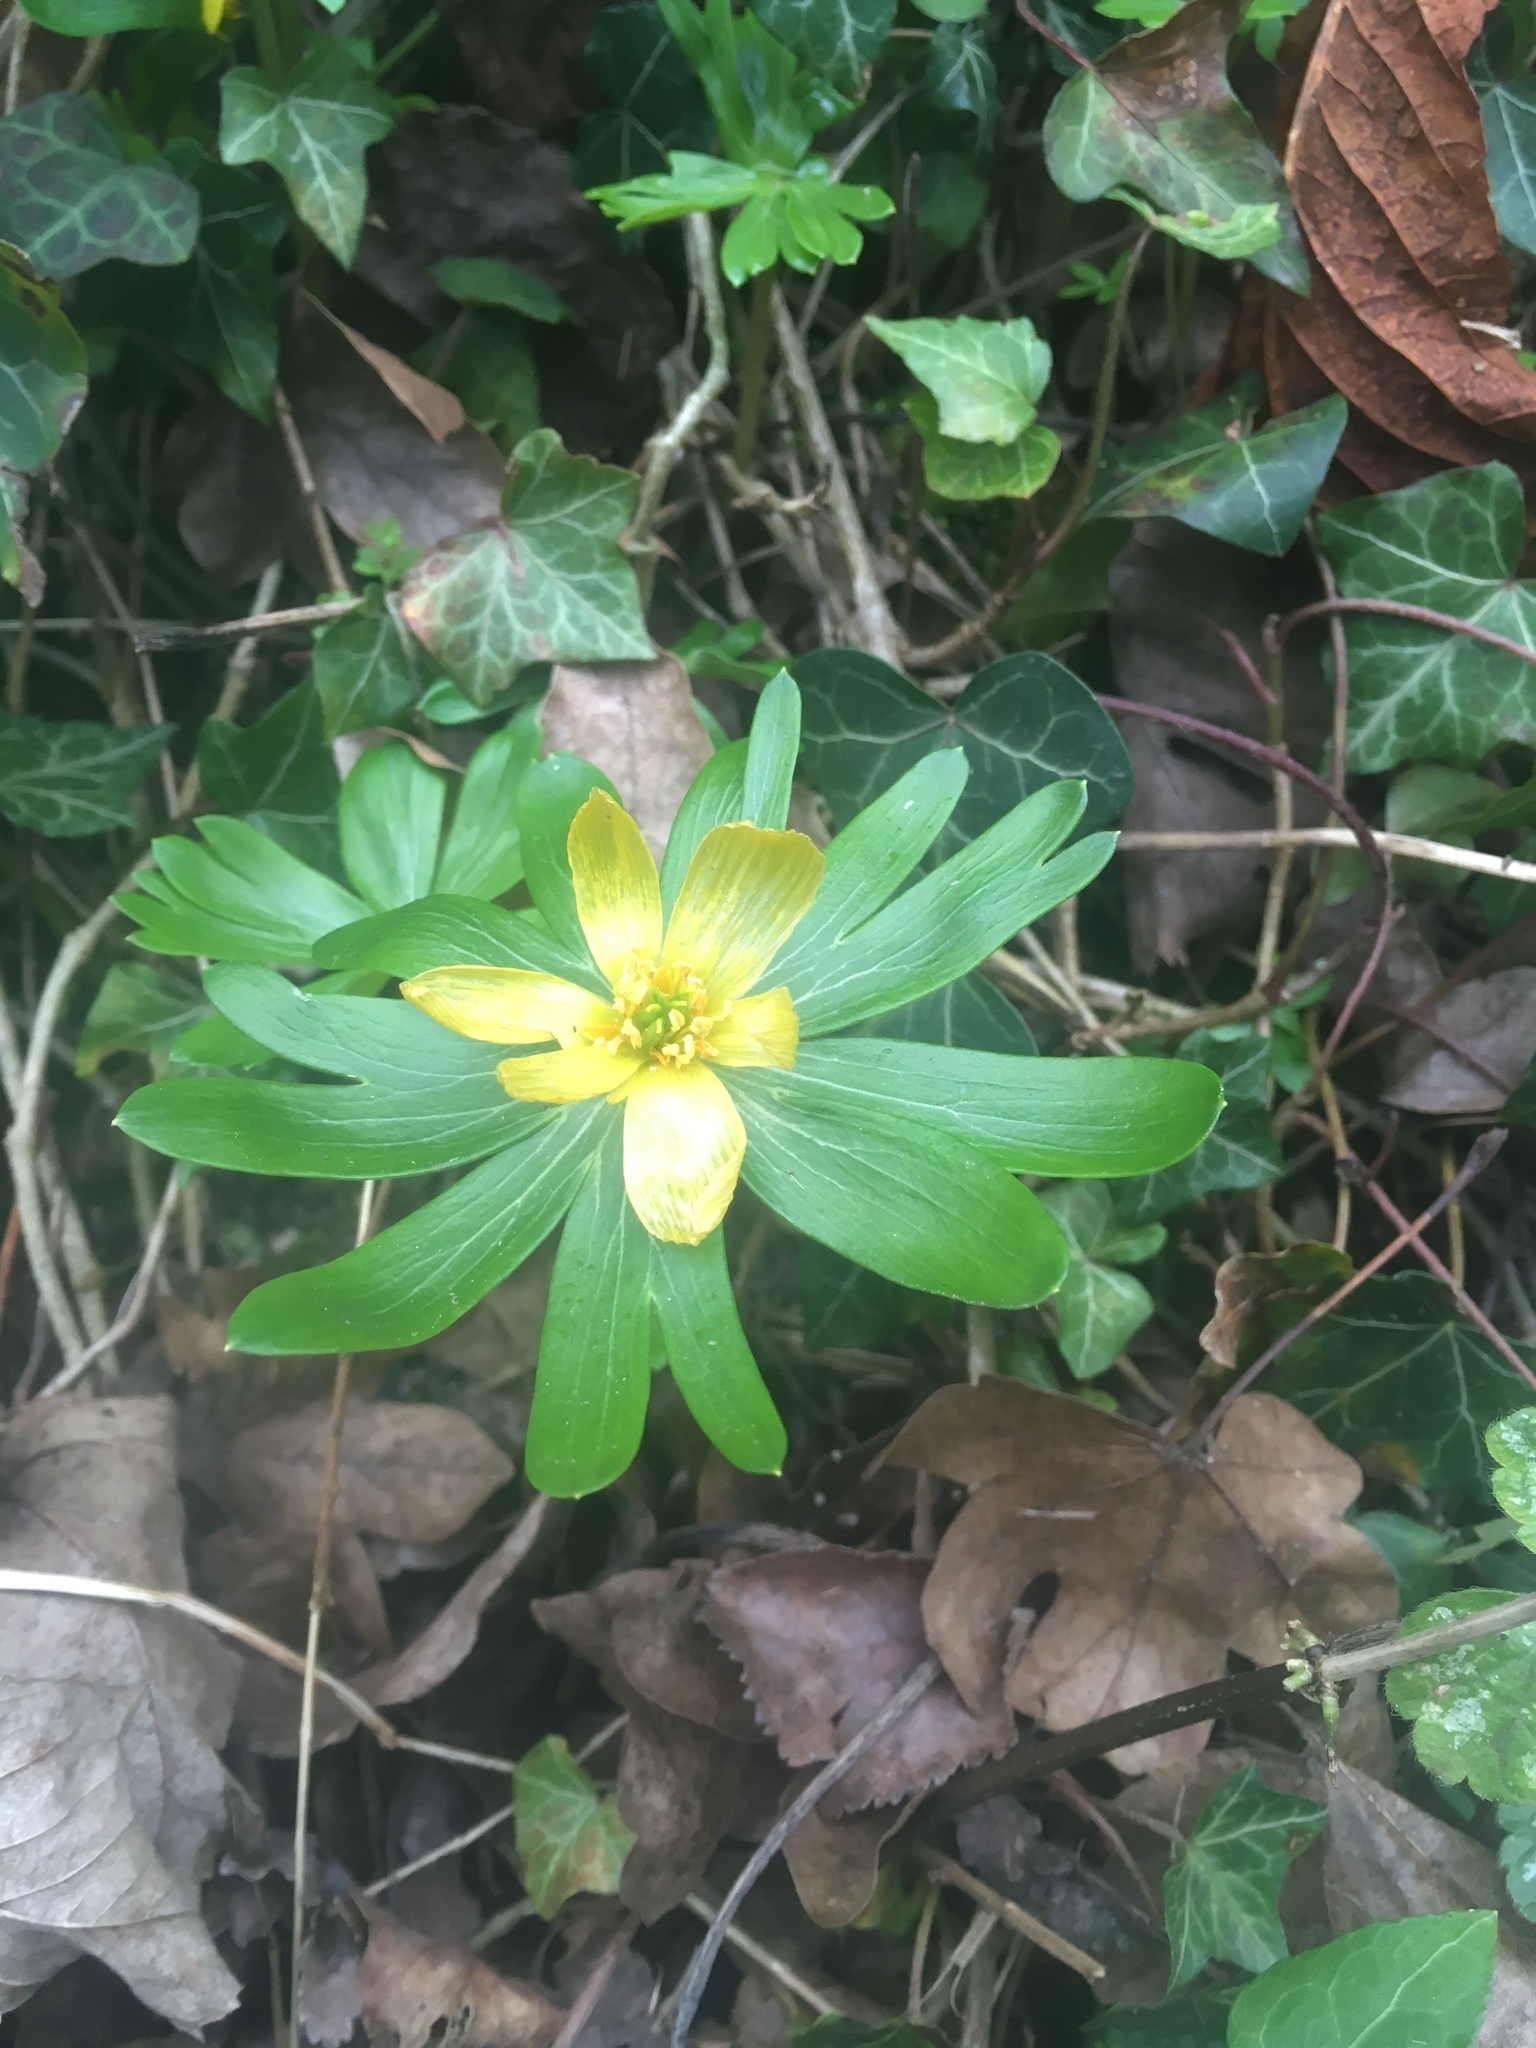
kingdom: Plantae
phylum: Tracheophyta
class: Magnoliopsida
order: Ranunculales
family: Ranunculaceae
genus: Eranthis
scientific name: Eranthis hyemalis
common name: Winter aconite
